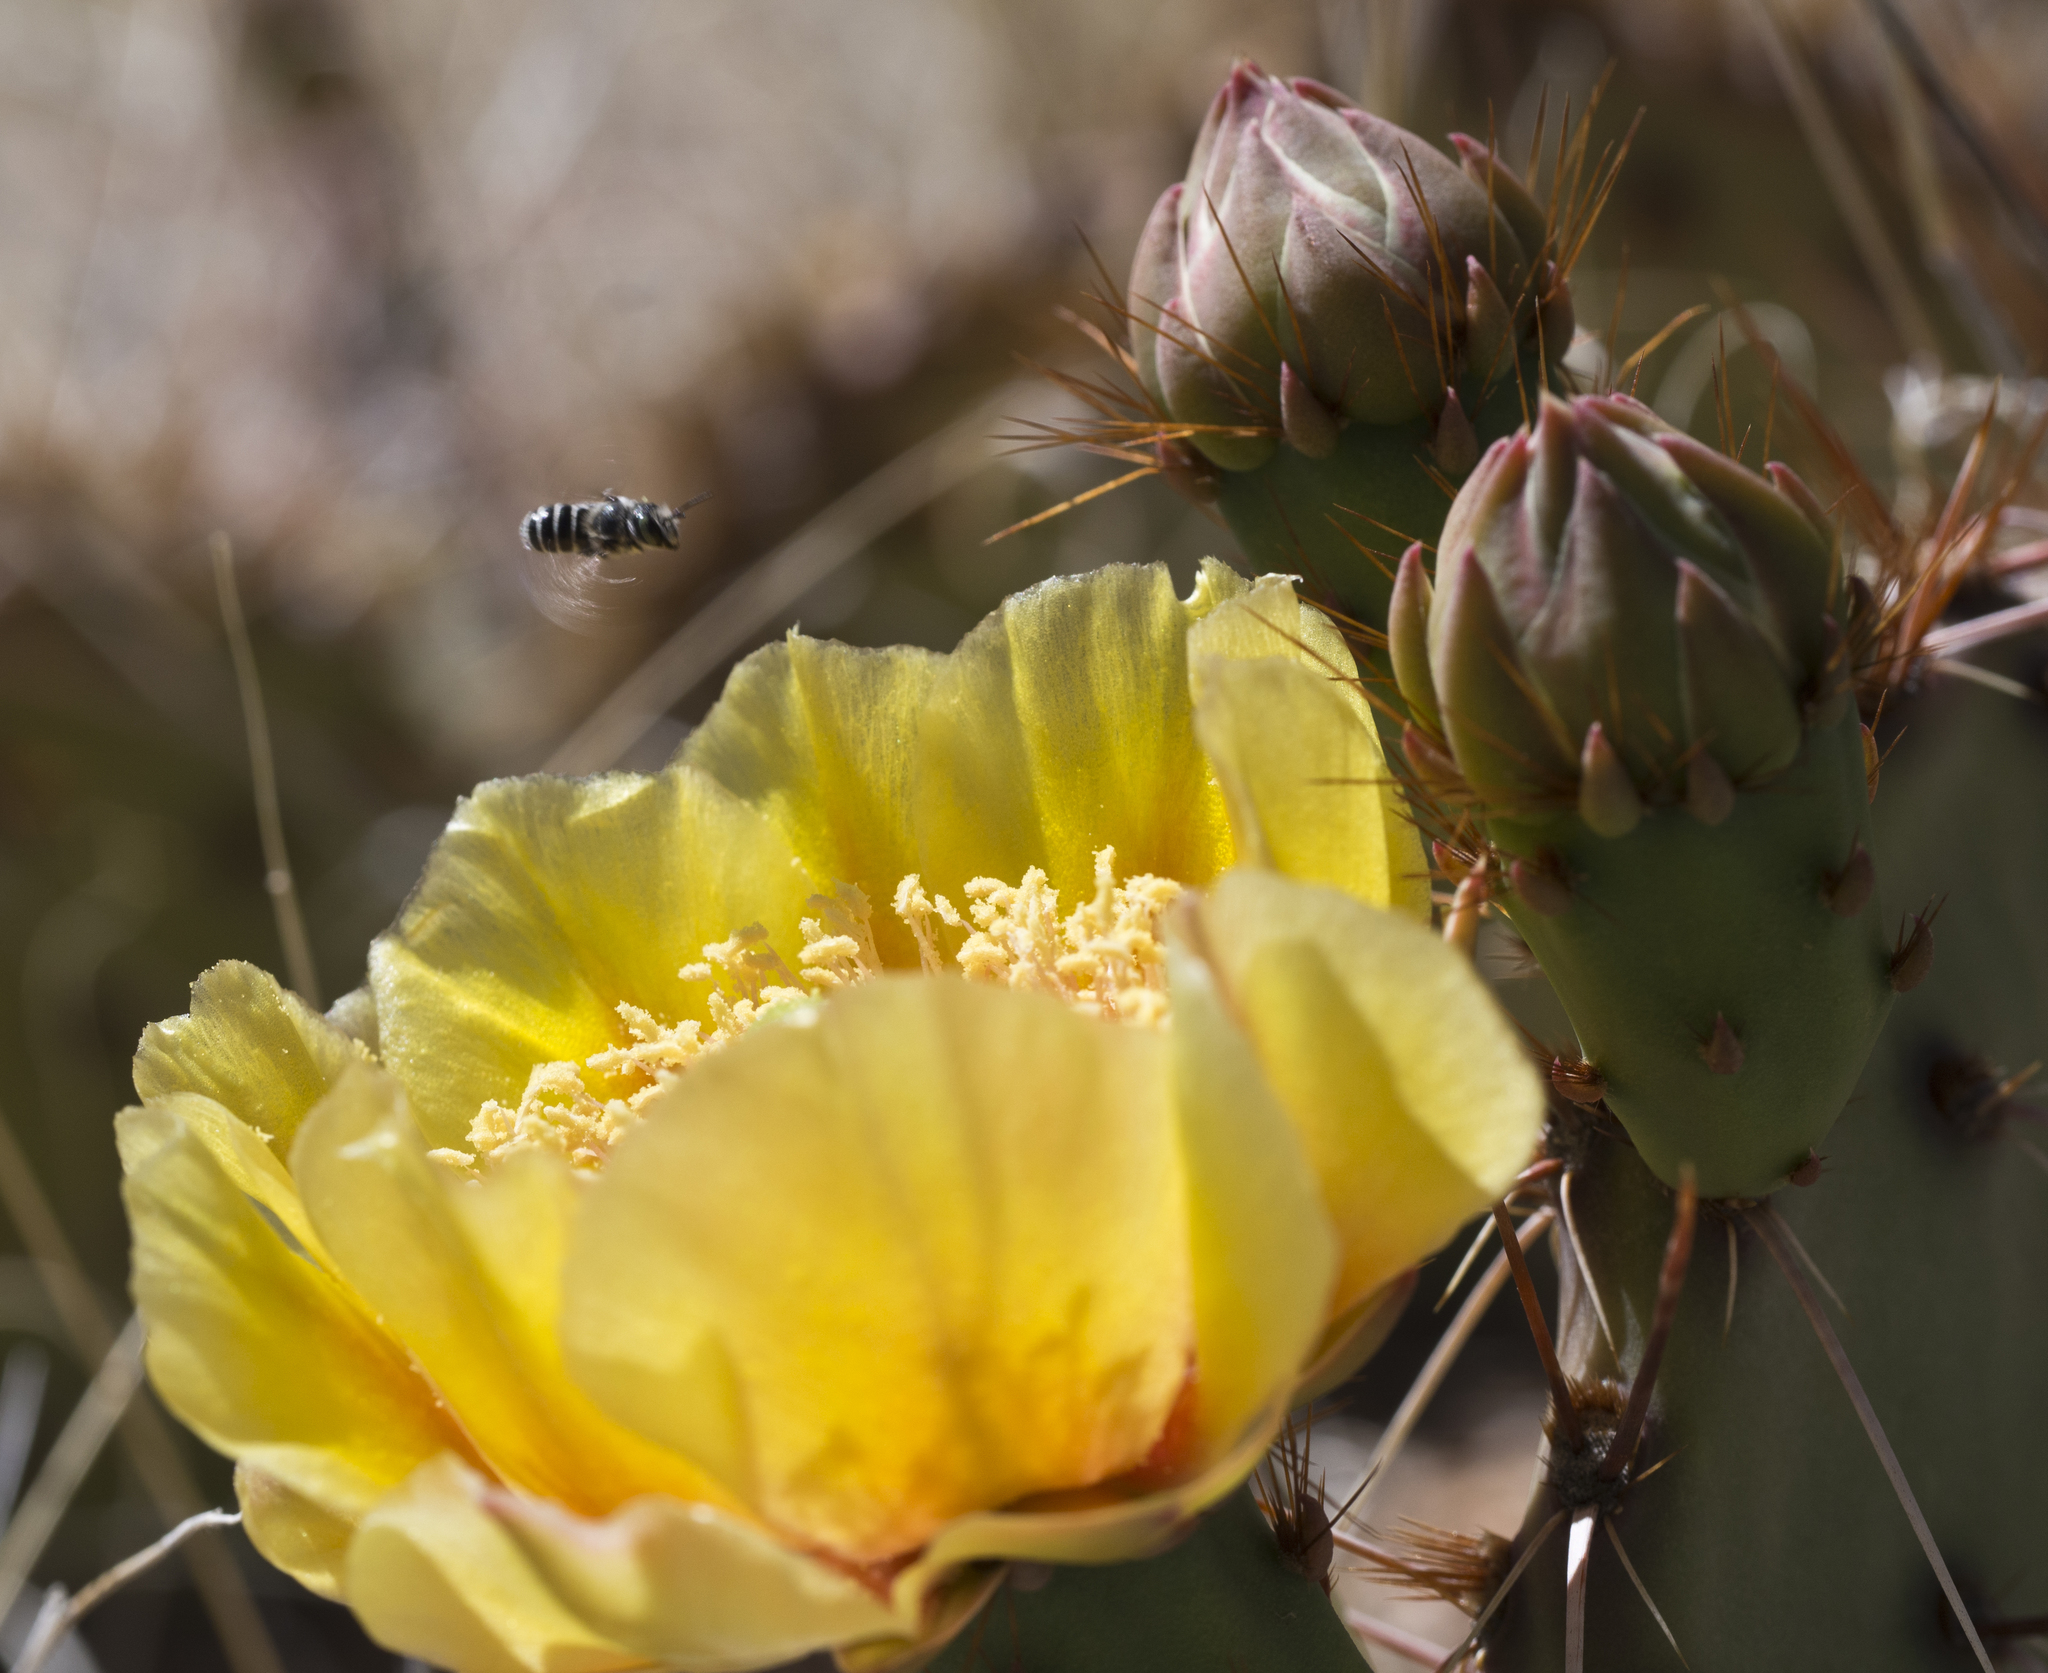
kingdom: Animalia
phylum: Arthropoda
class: Insecta
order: Hymenoptera
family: Megachilidae
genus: Ashmeadiella
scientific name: Ashmeadiella
